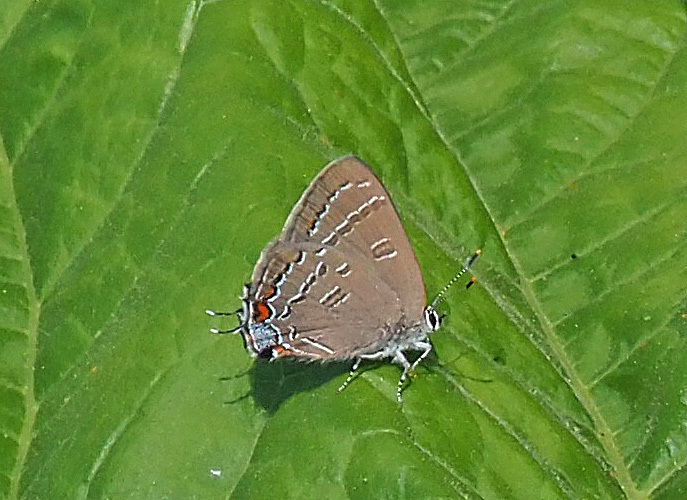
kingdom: Animalia
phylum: Arthropoda
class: Insecta
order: Lepidoptera
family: Lycaenidae
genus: Satyrium
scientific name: Satyrium calanus
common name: Banded hairstreak
